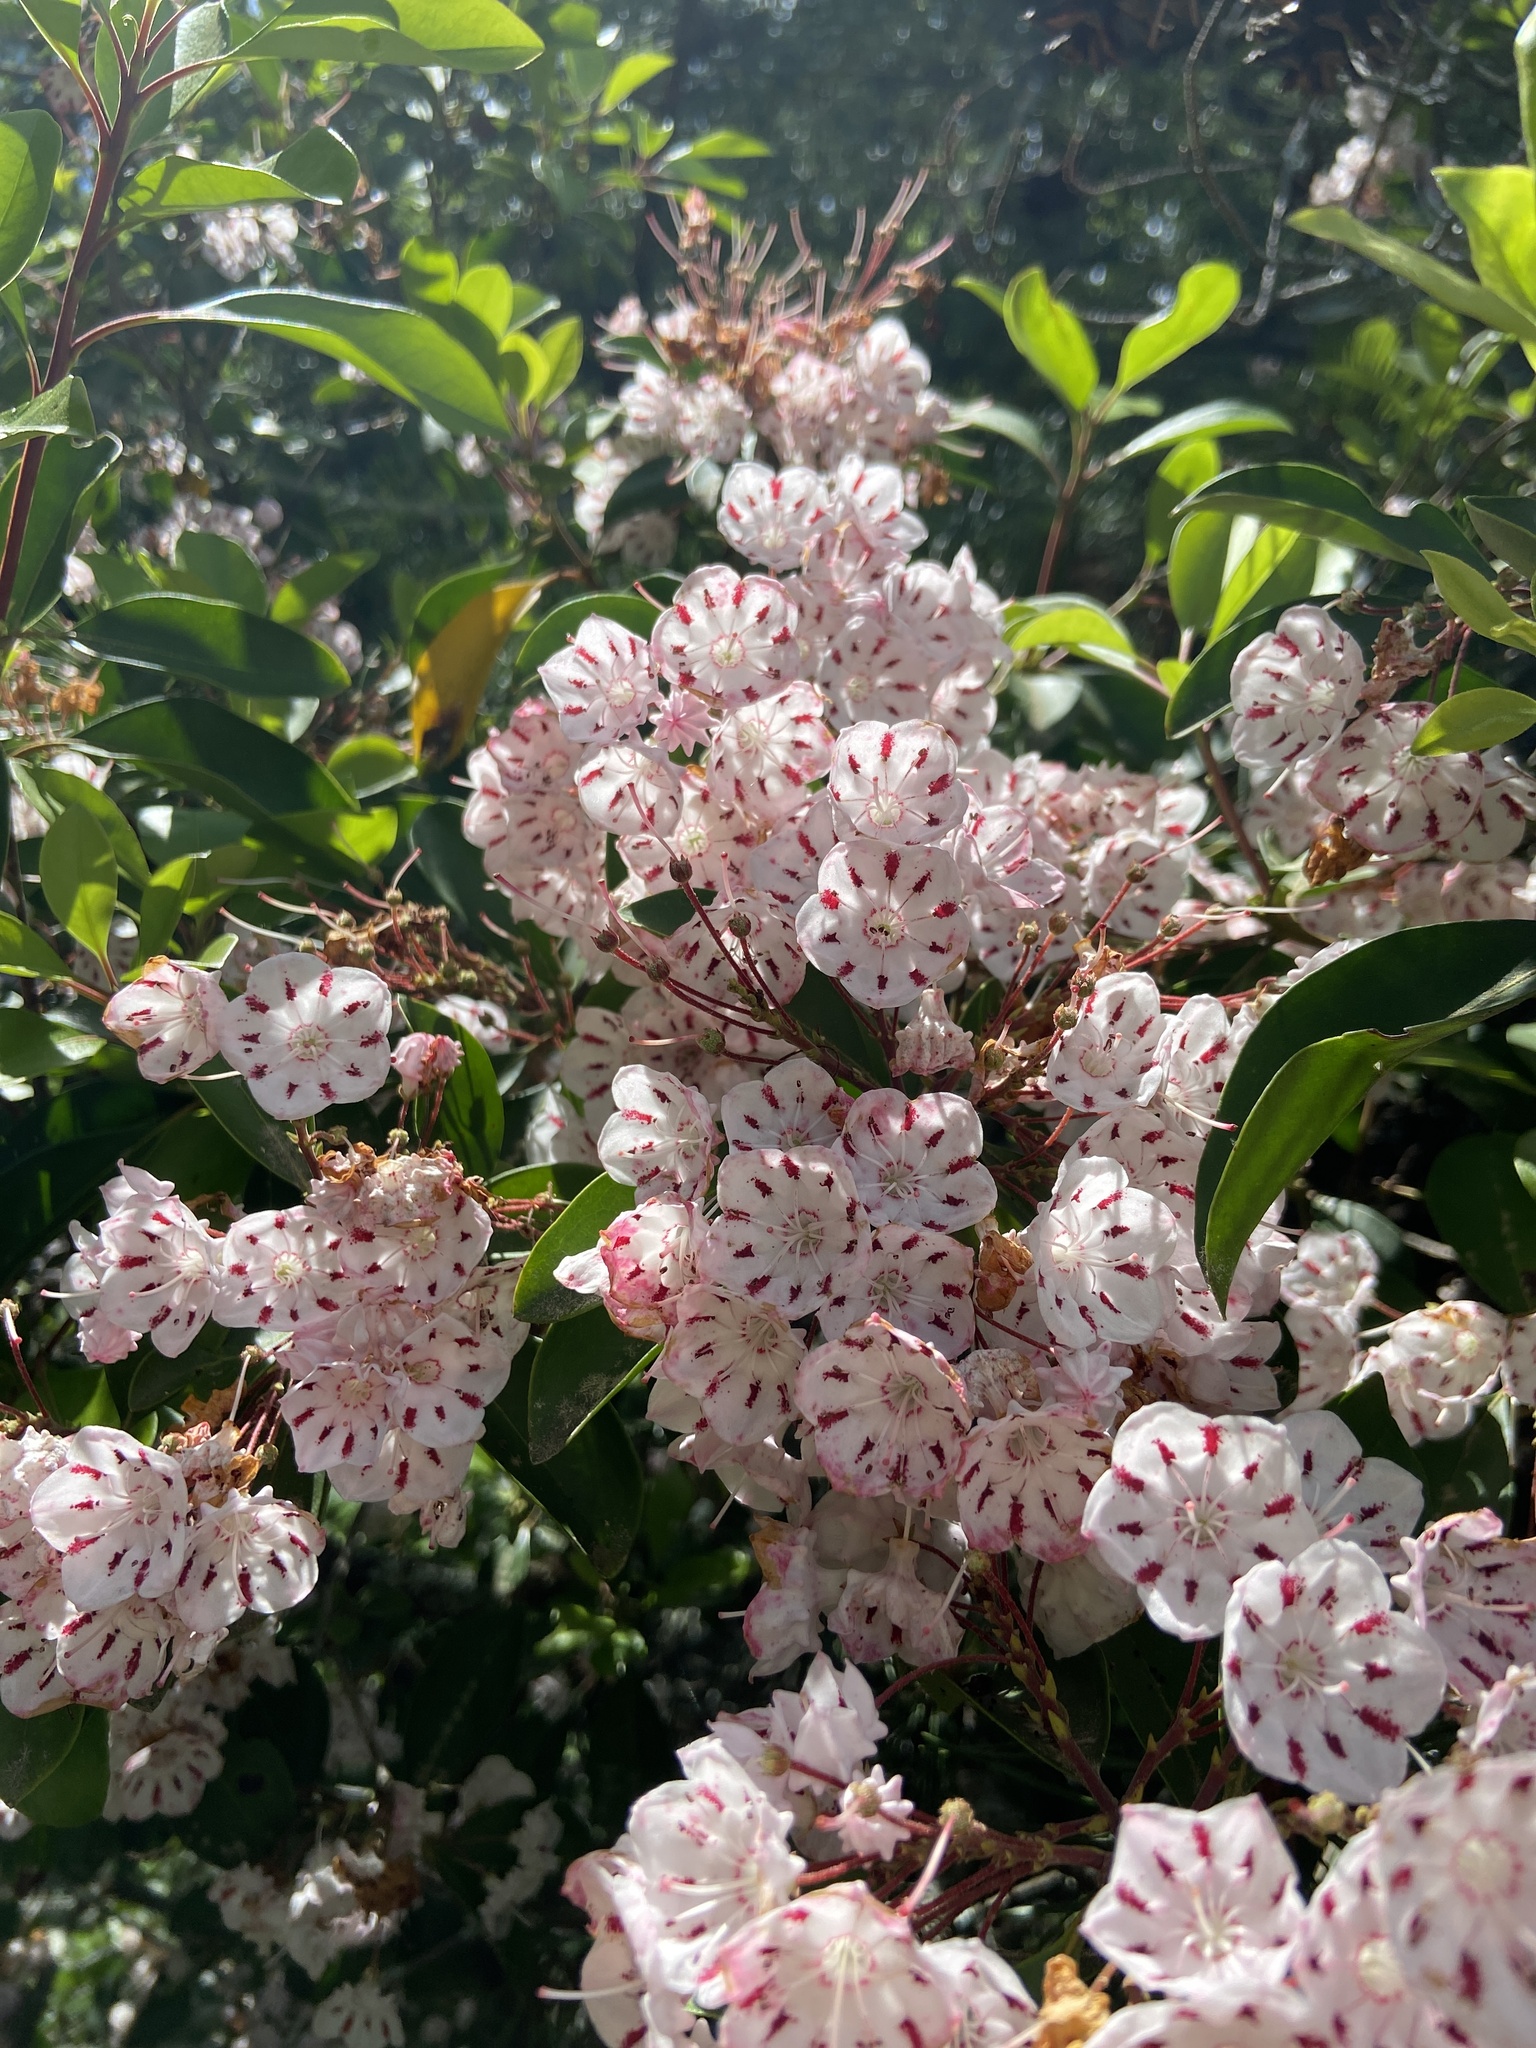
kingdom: Plantae
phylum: Tracheophyta
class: Magnoliopsida
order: Ericales
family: Ericaceae
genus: Kalmia
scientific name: Kalmia latifolia
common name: Mountain-laurel
